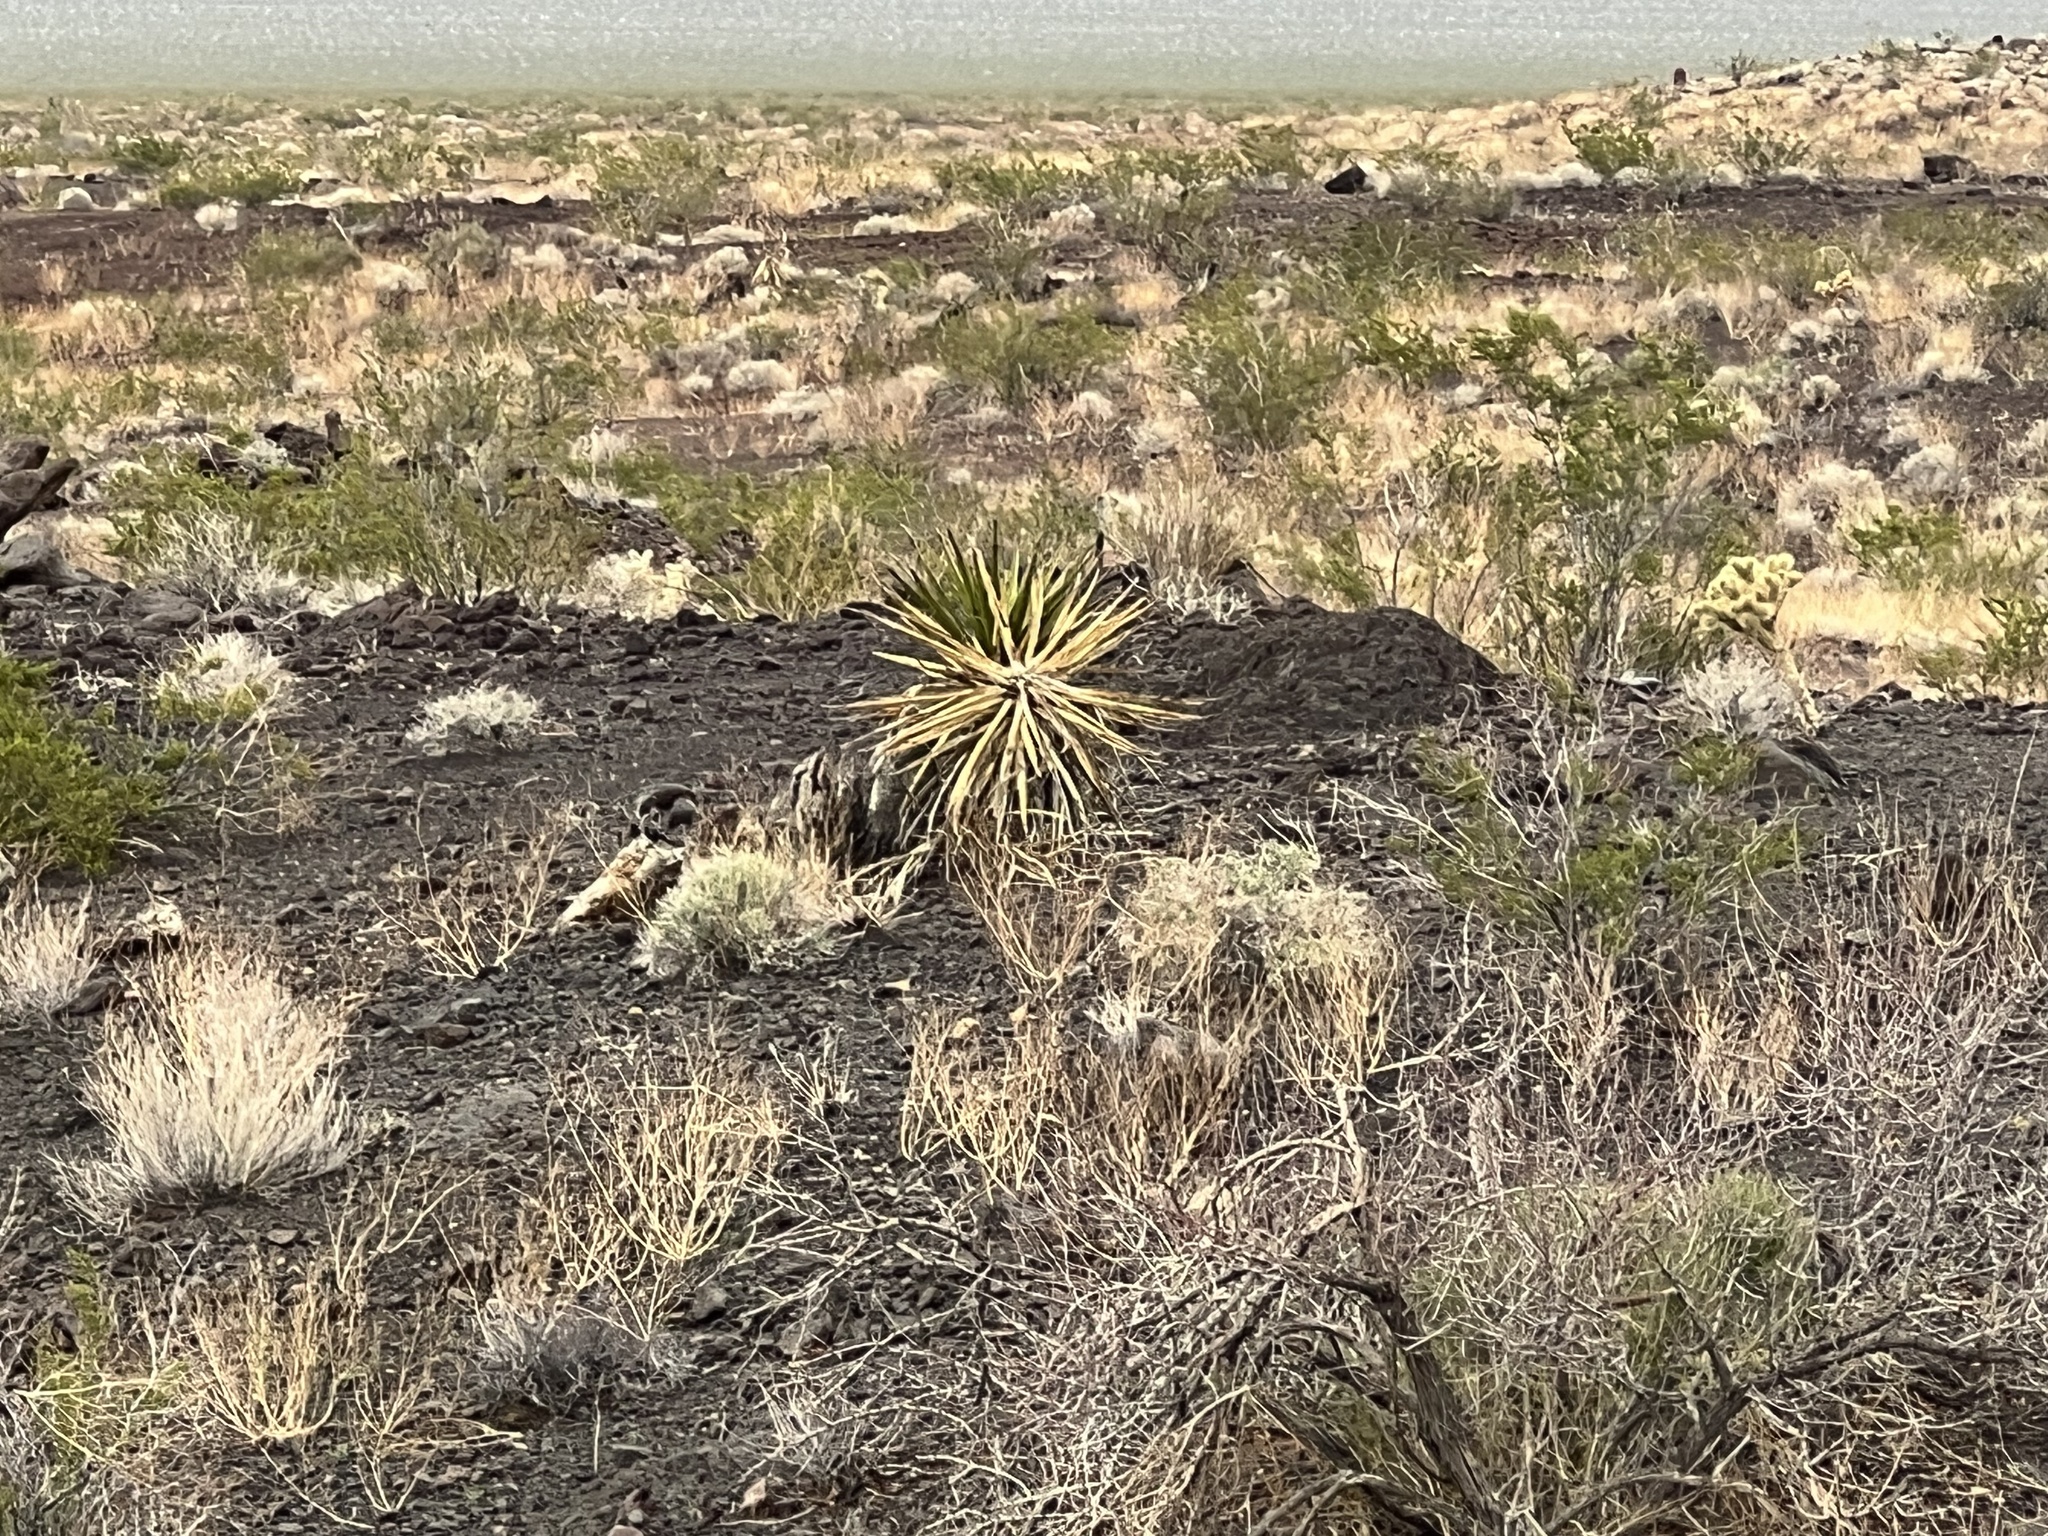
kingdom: Plantae
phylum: Tracheophyta
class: Liliopsida
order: Asparagales
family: Asparagaceae
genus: Yucca
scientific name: Yucca schidigera
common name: Mojave yucca
